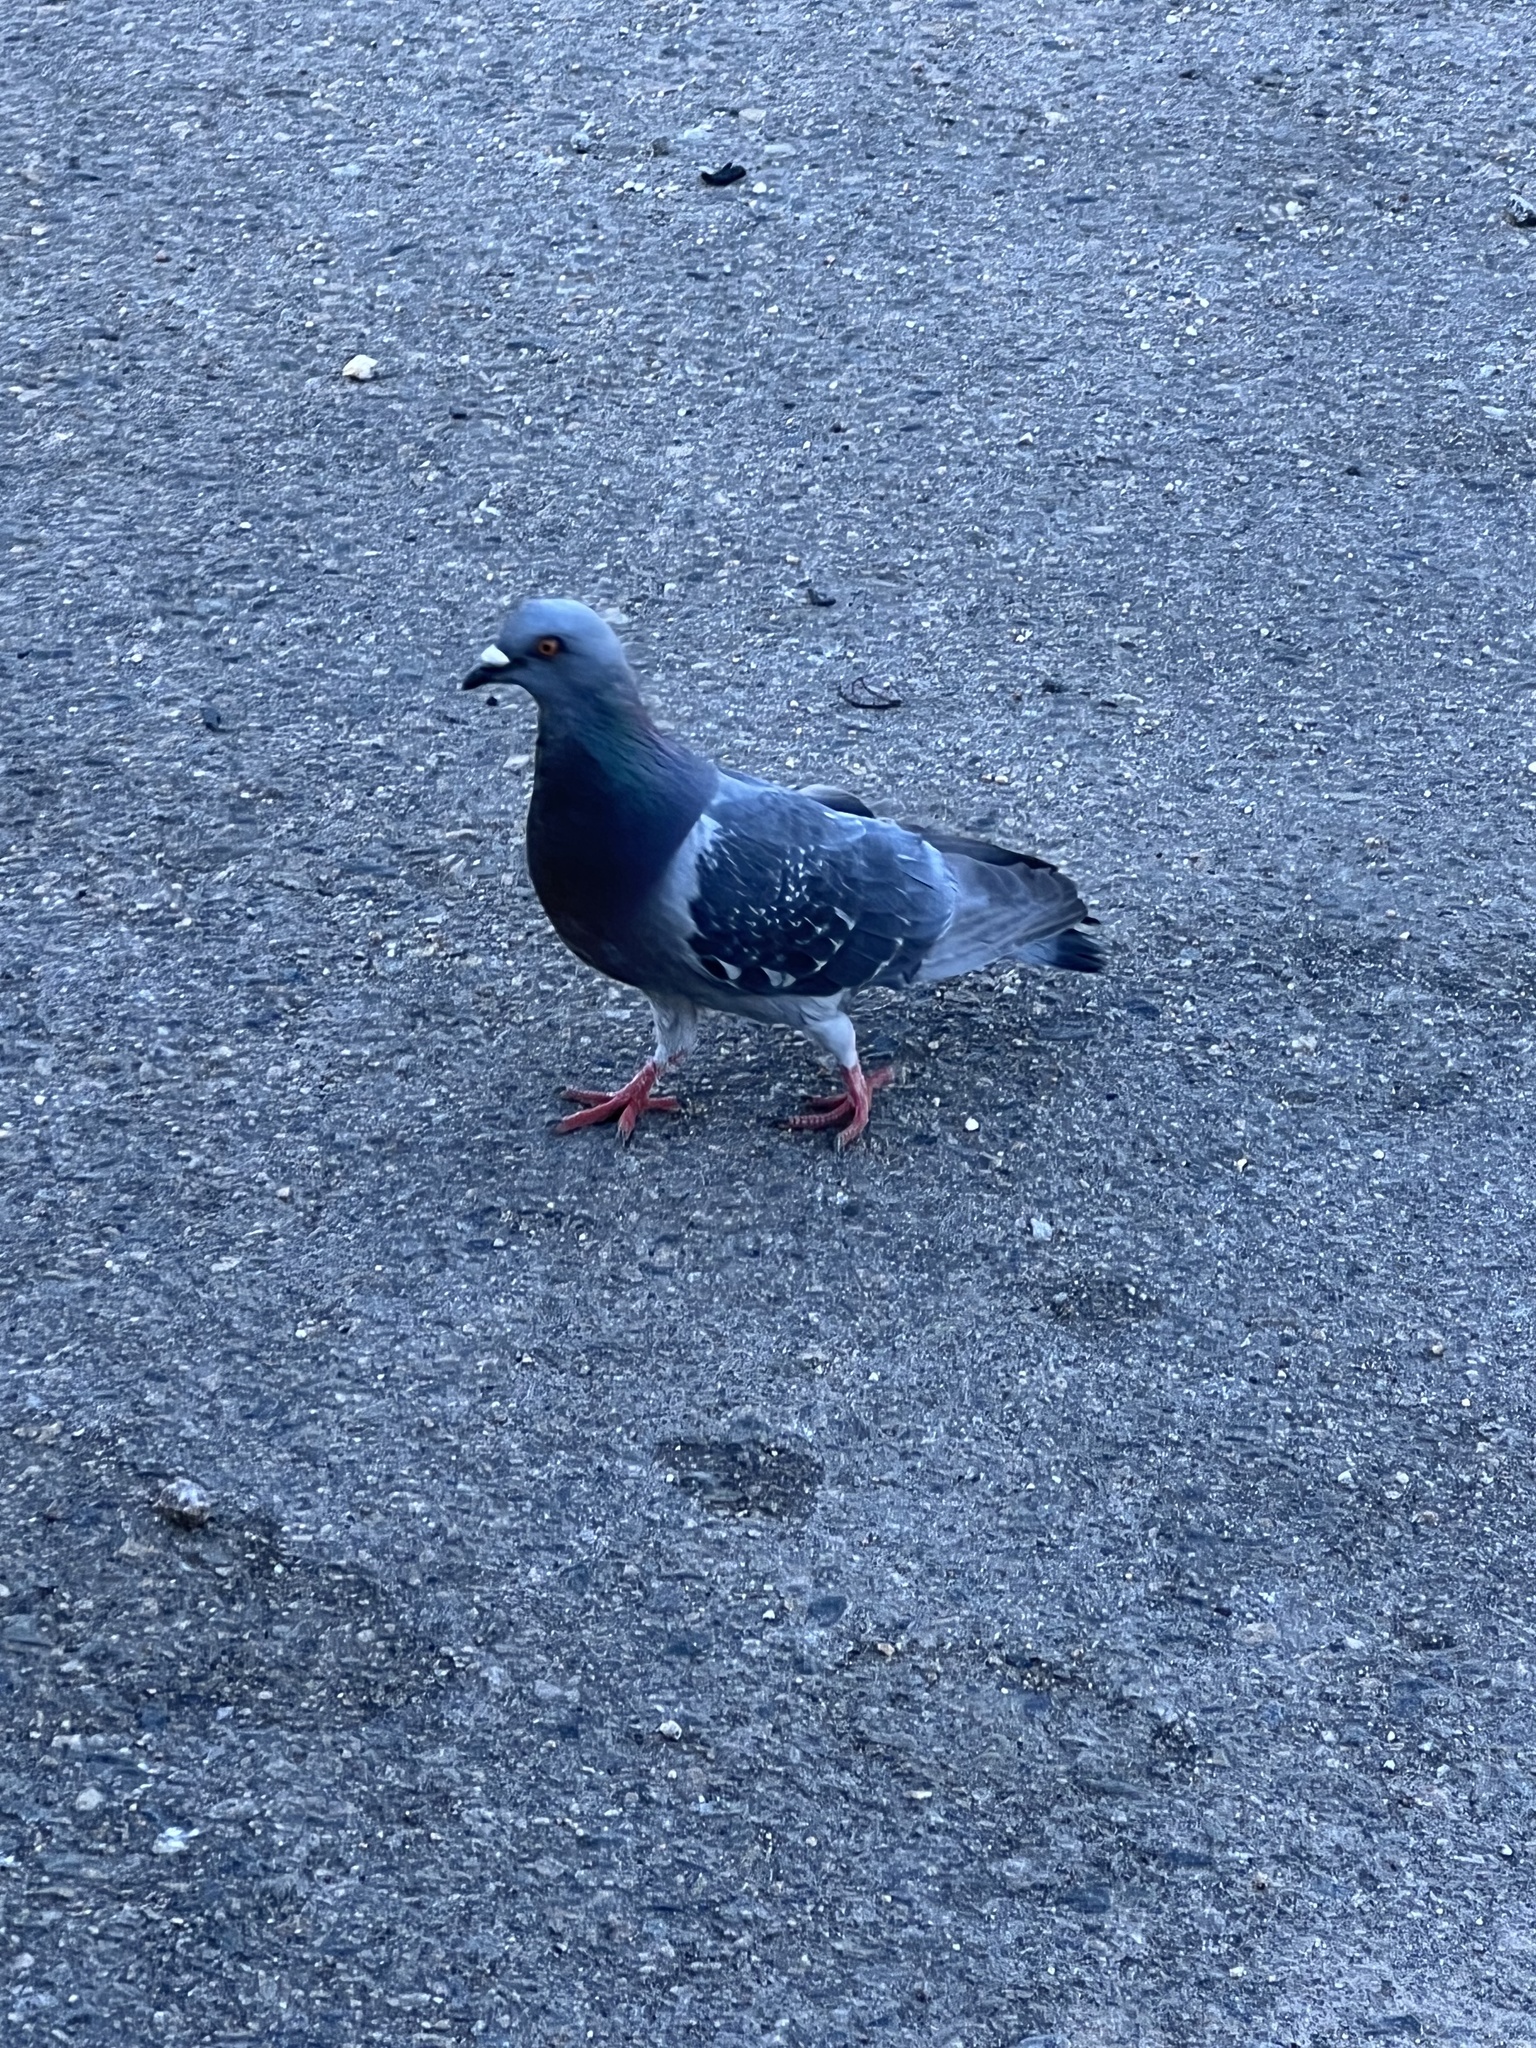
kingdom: Animalia
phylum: Chordata
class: Aves
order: Columbiformes
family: Columbidae
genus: Columba
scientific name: Columba livia
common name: Rock pigeon
